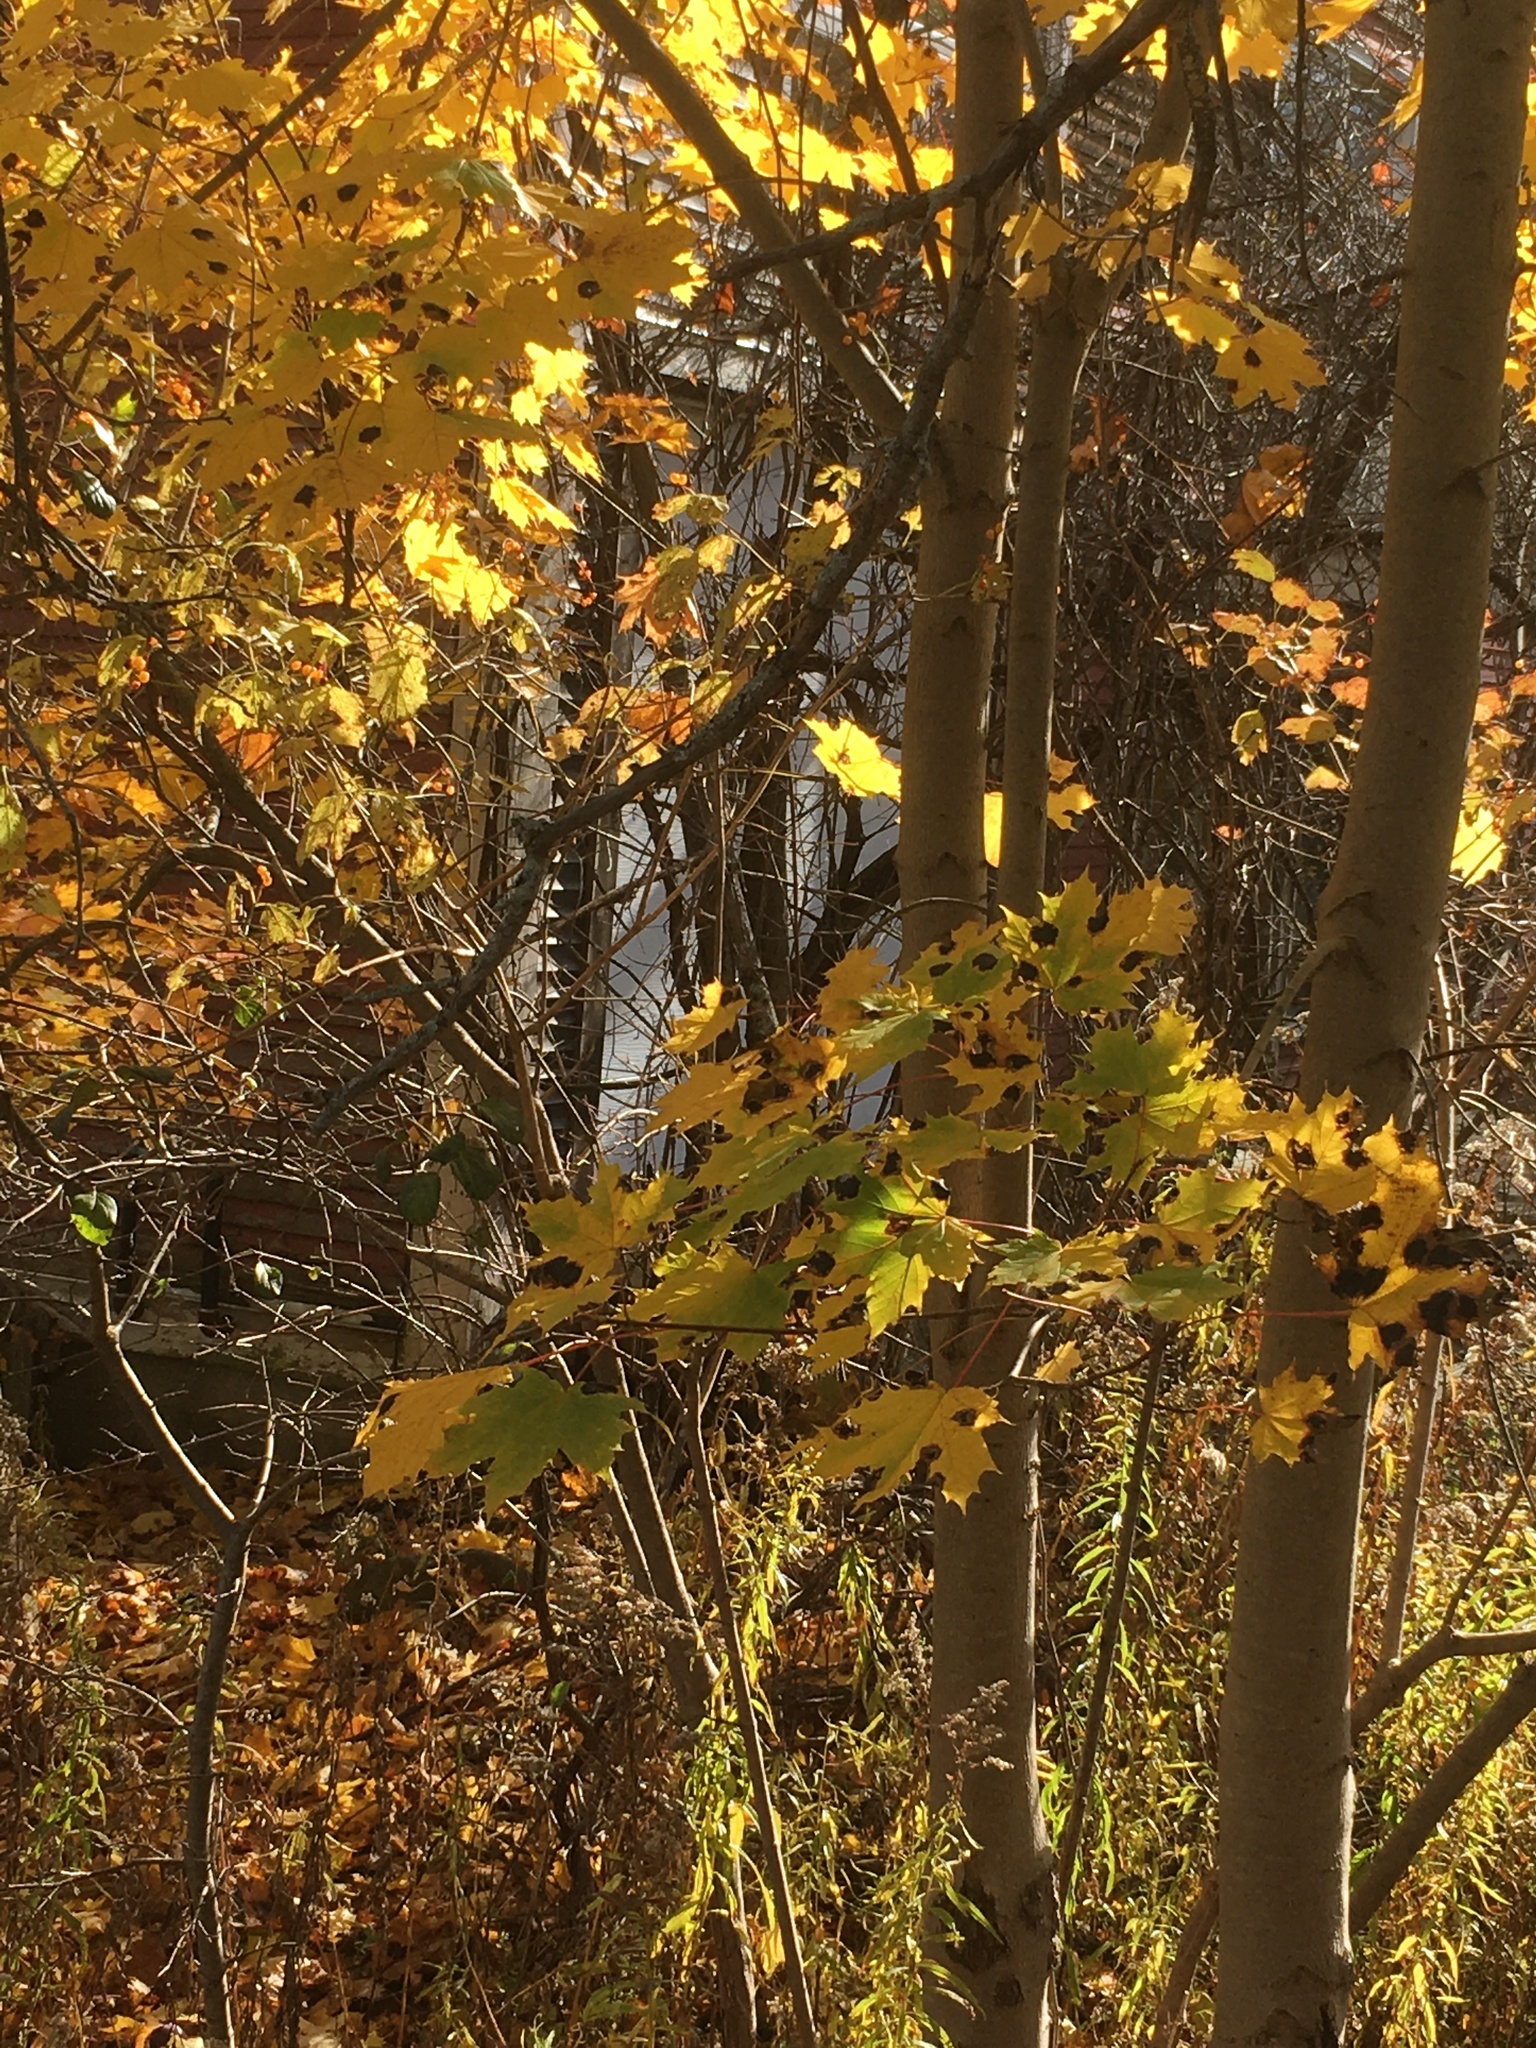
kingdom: Plantae
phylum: Tracheophyta
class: Magnoliopsida
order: Sapindales
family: Sapindaceae
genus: Acer
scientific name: Acer platanoides
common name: Norway maple
